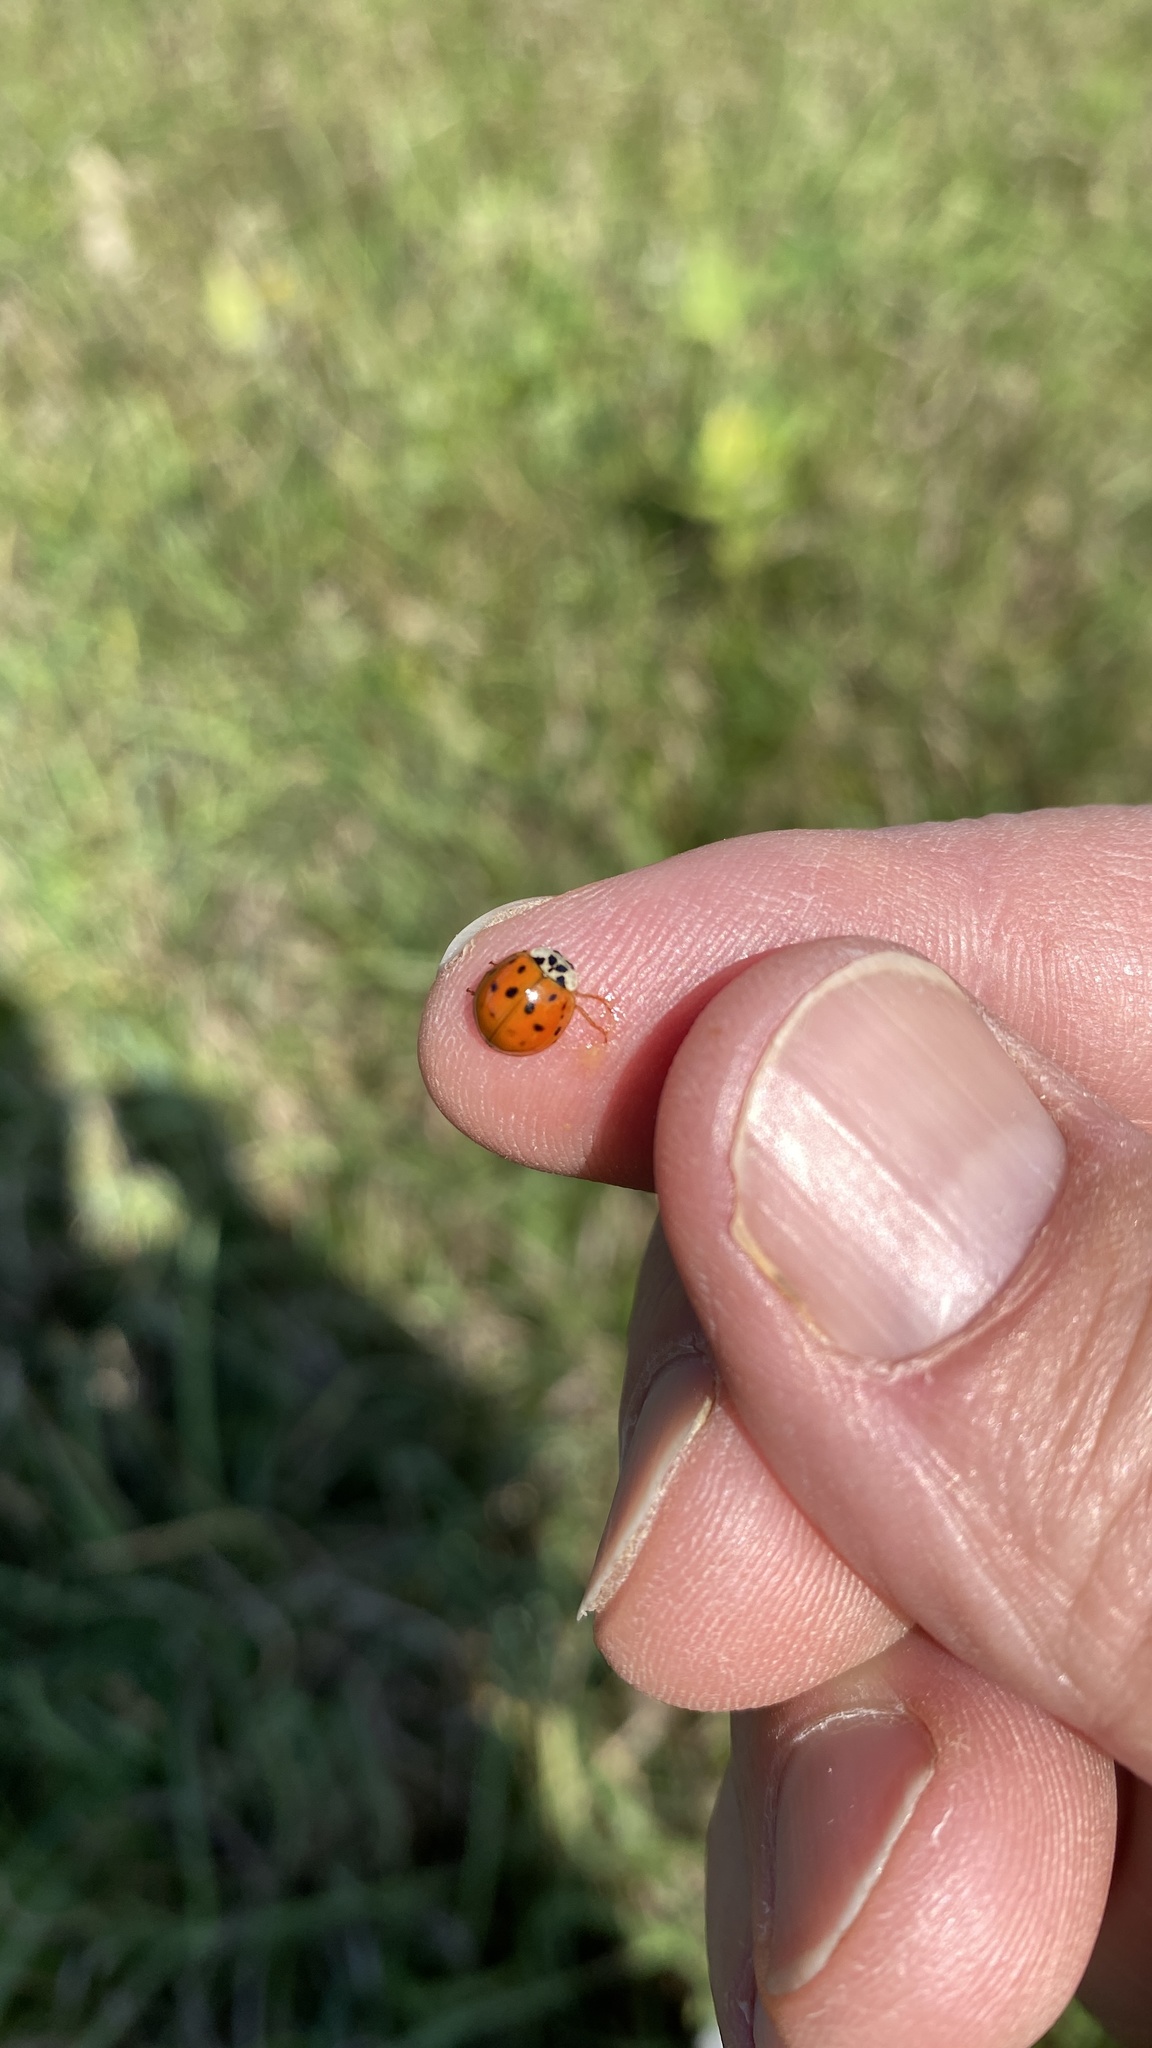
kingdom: Animalia
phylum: Arthropoda
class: Insecta
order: Coleoptera
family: Coccinellidae
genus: Harmonia
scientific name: Harmonia axyridis
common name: Harlequin ladybird
